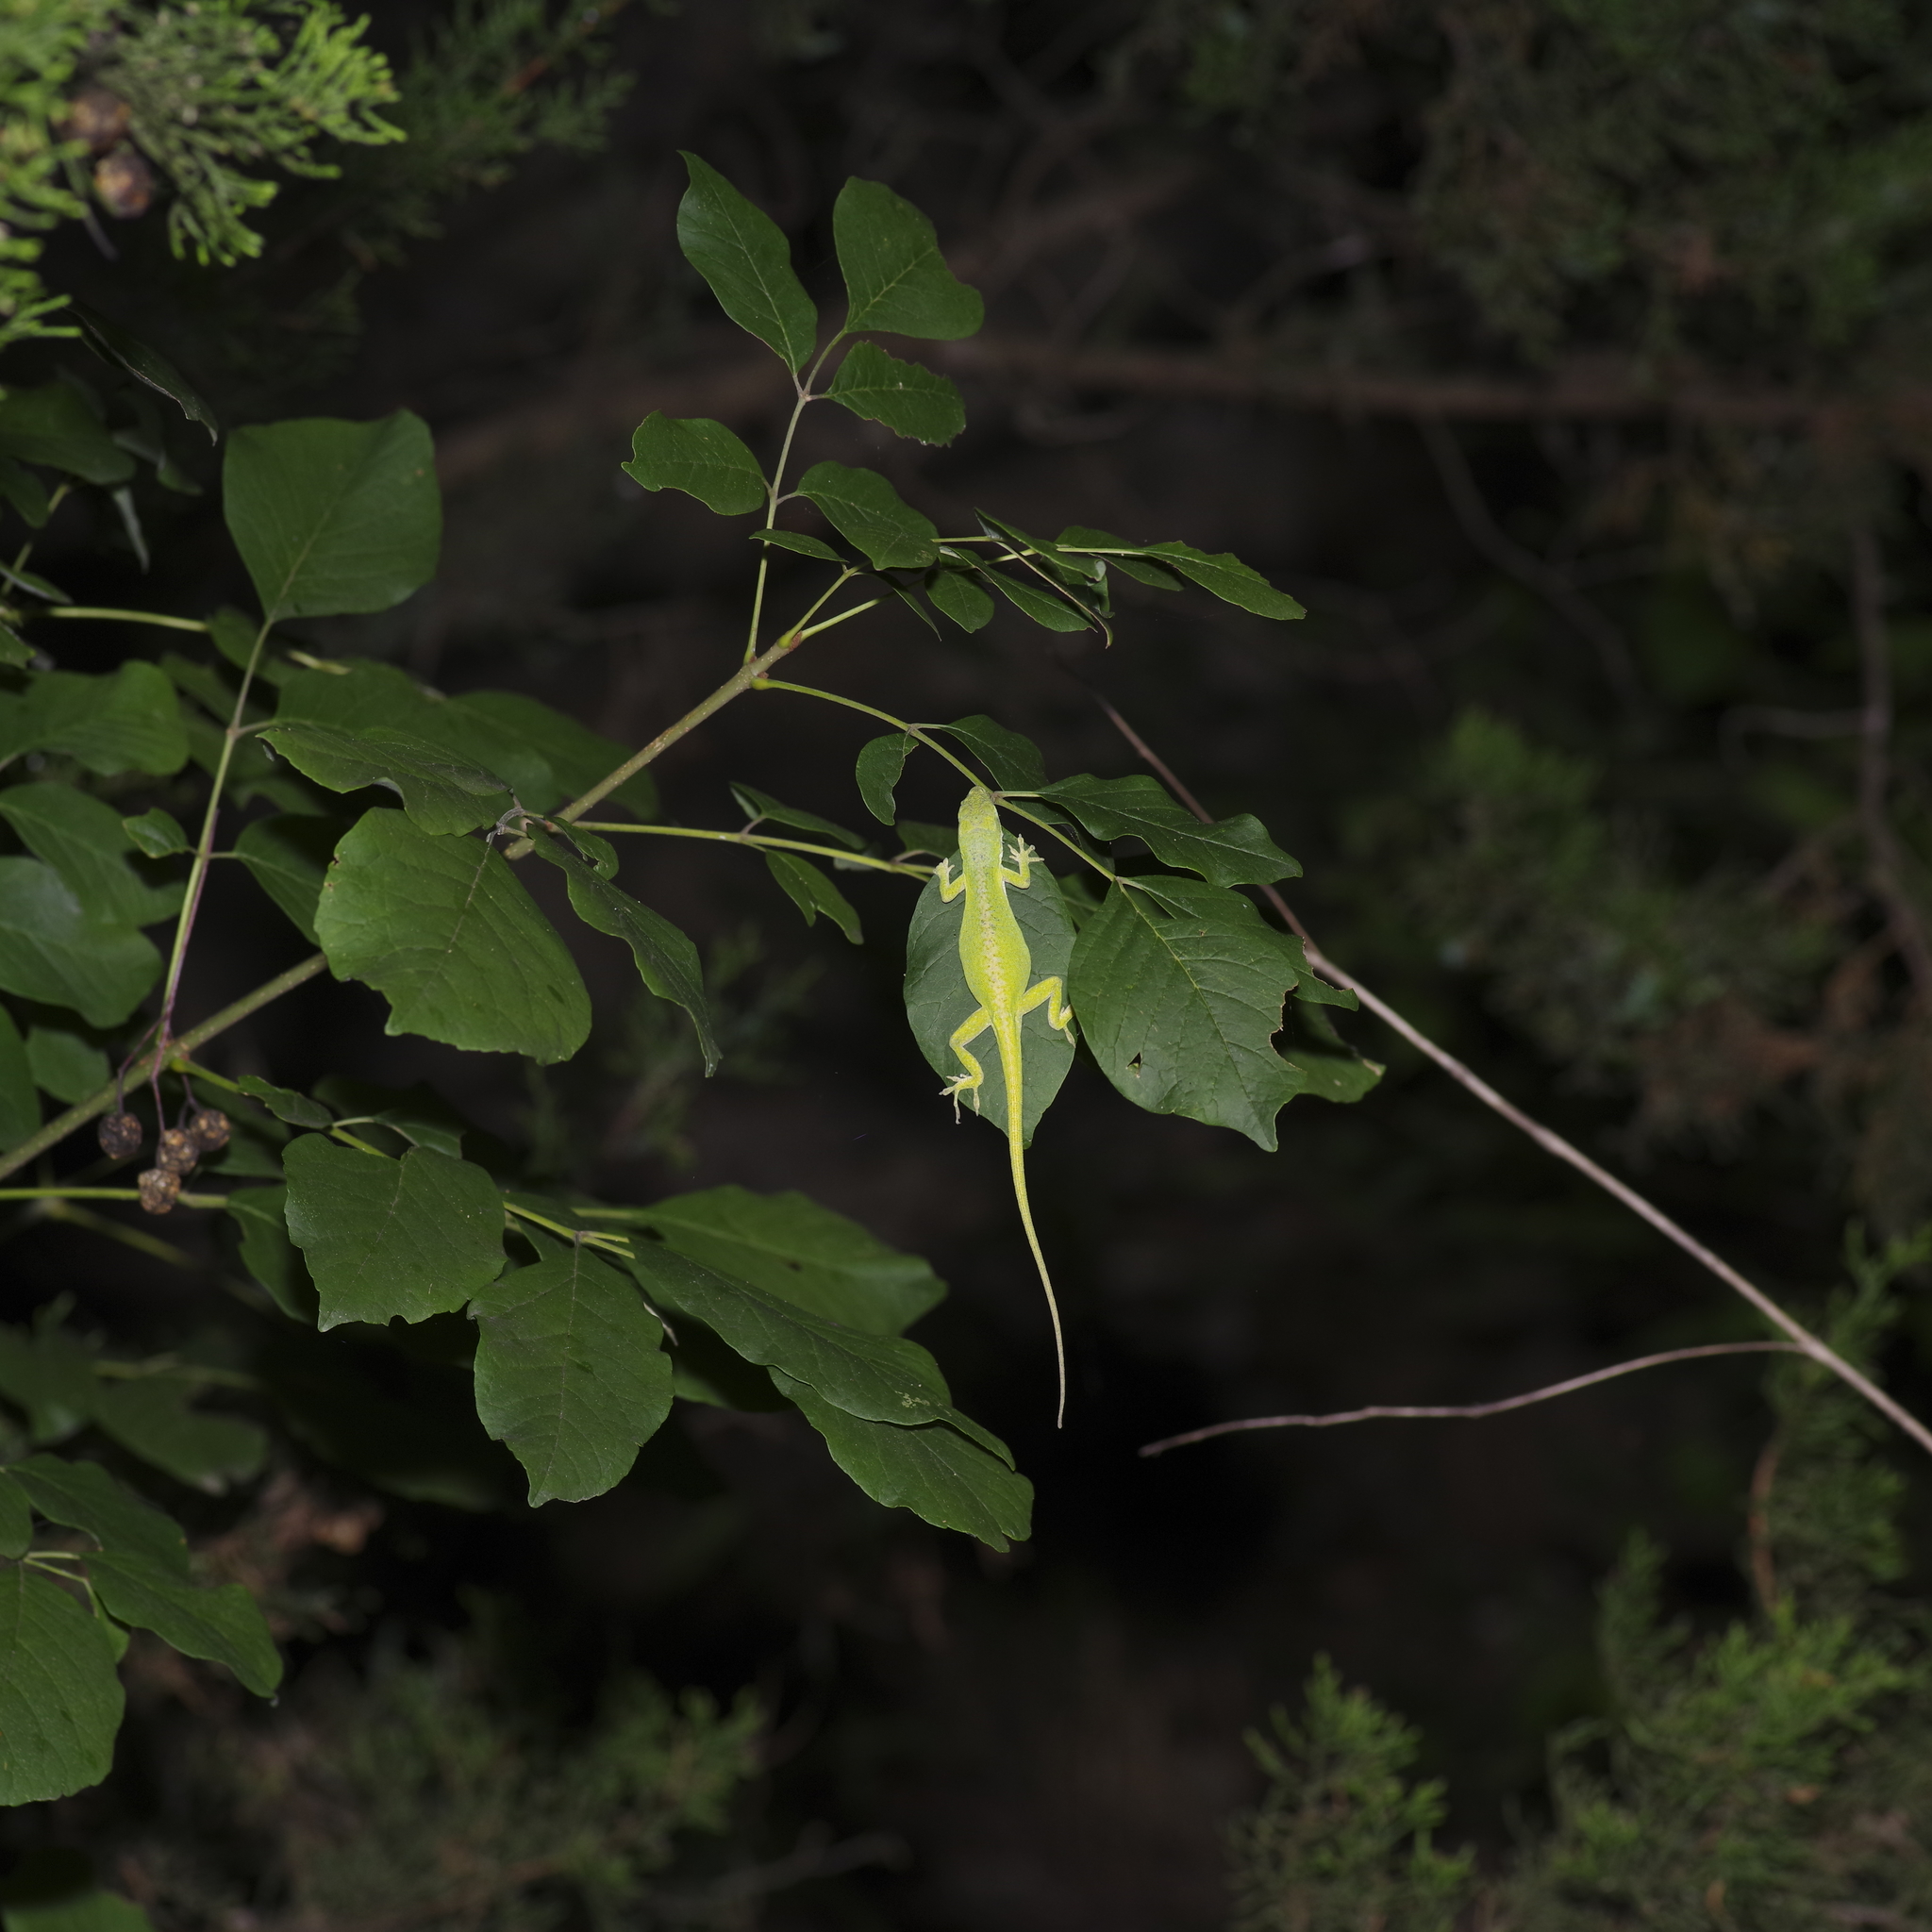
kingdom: Animalia
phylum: Chordata
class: Squamata
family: Dactyloidae
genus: Anolis
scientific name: Anolis carolinensis
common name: Green anole
